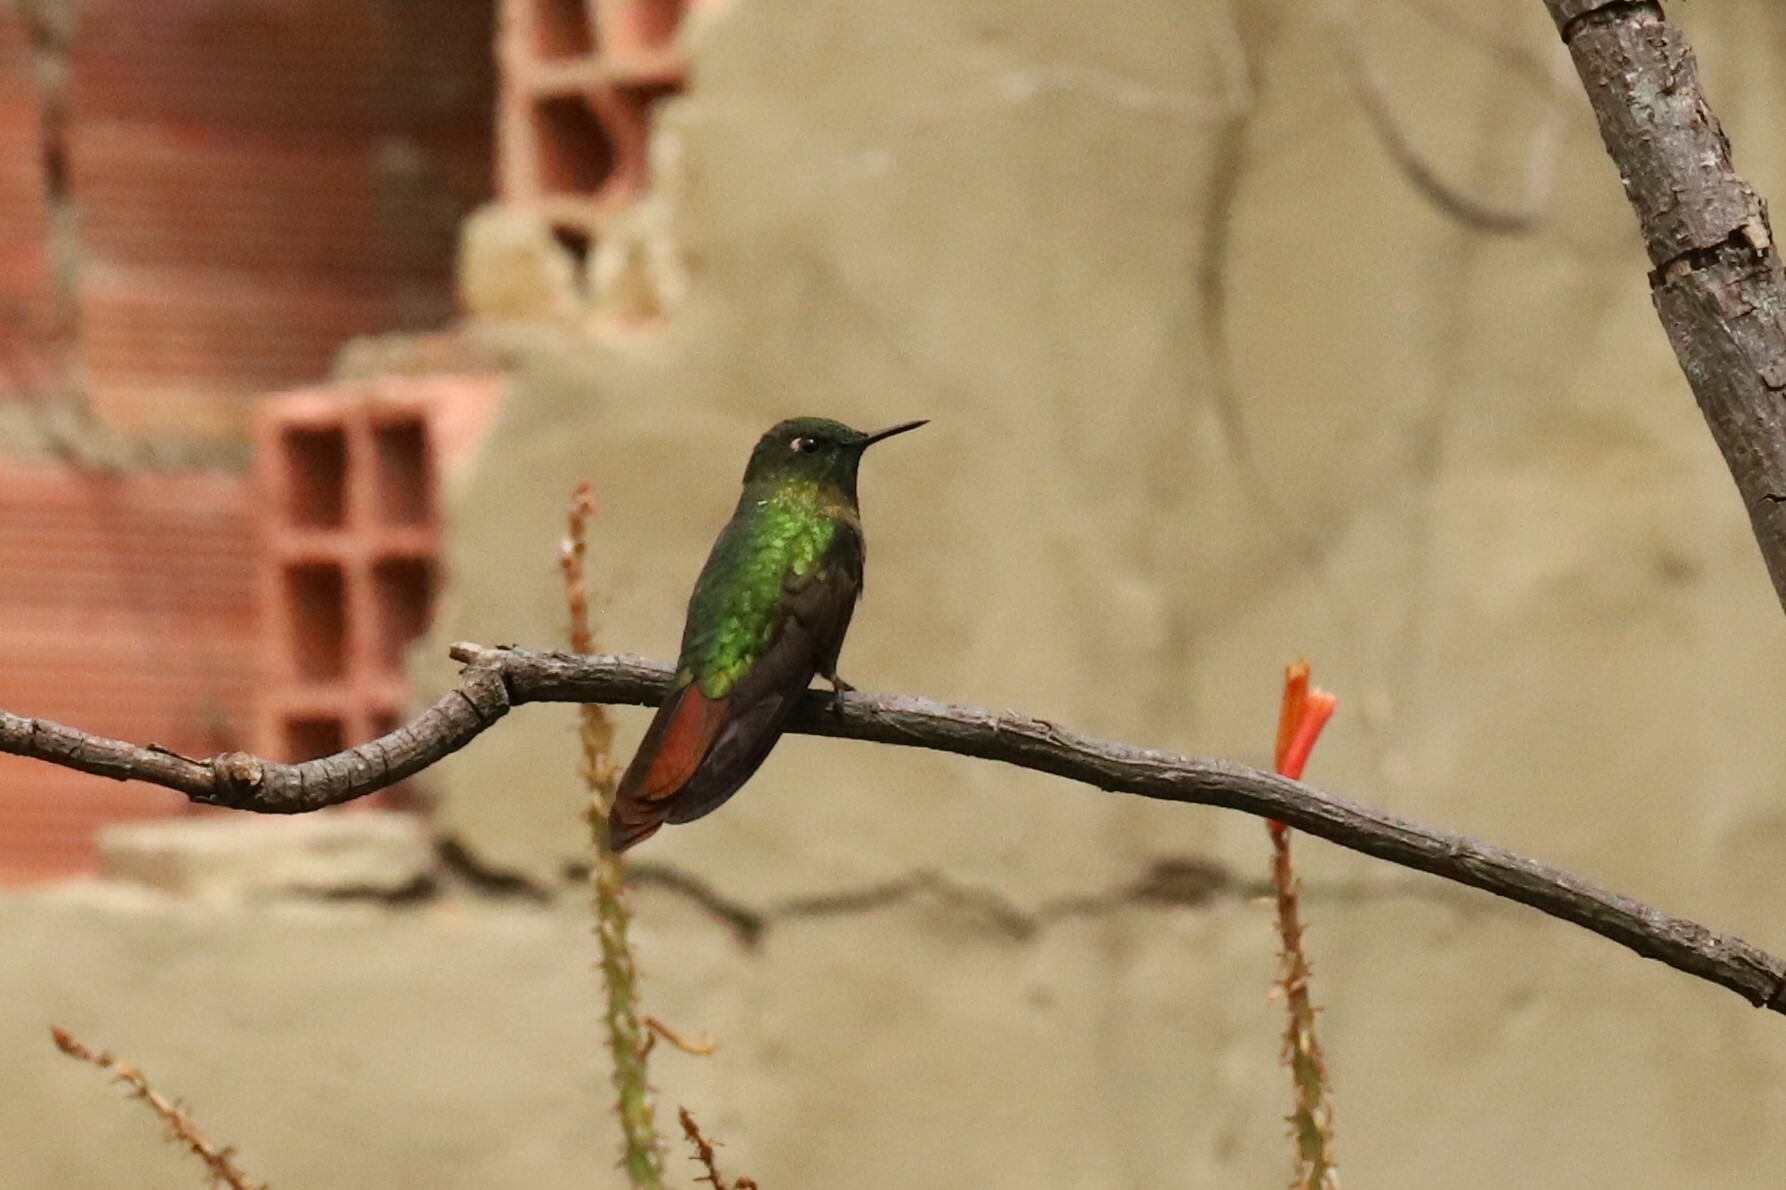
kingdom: Animalia
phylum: Chordata
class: Aves
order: Apodiformes
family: Trochilidae
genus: Metallura
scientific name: Metallura tyrianthina
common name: Tyrian metaltail
